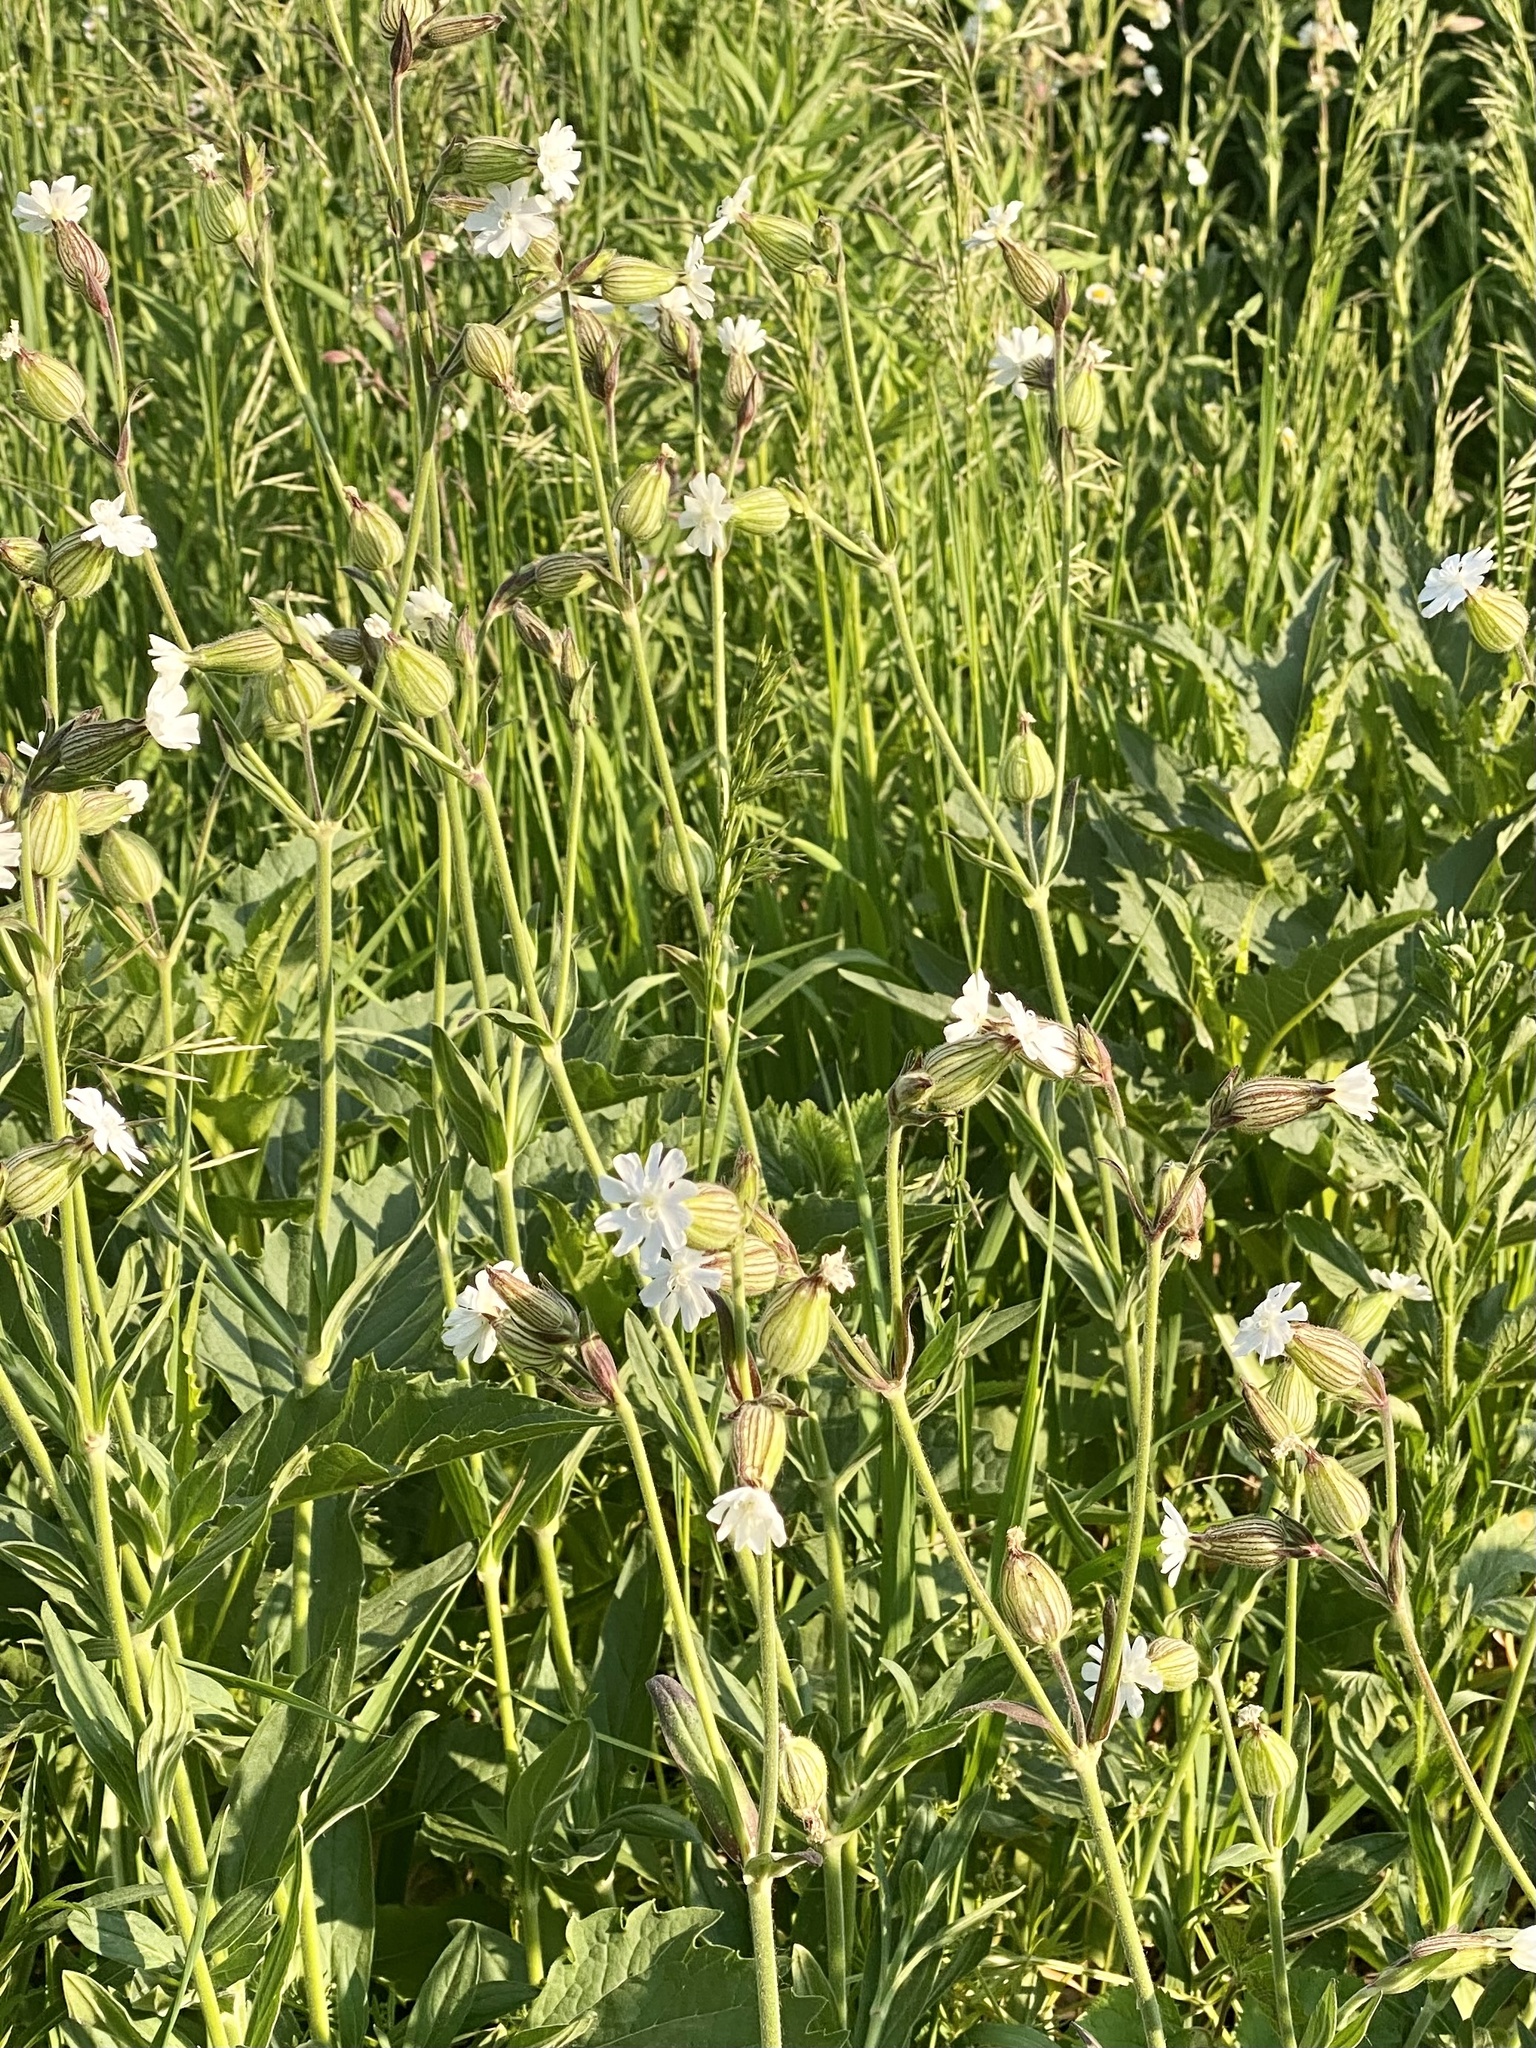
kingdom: Plantae
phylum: Tracheophyta
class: Magnoliopsida
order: Caryophyllales
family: Caryophyllaceae
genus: Silene
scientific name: Silene latifolia
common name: White campion
